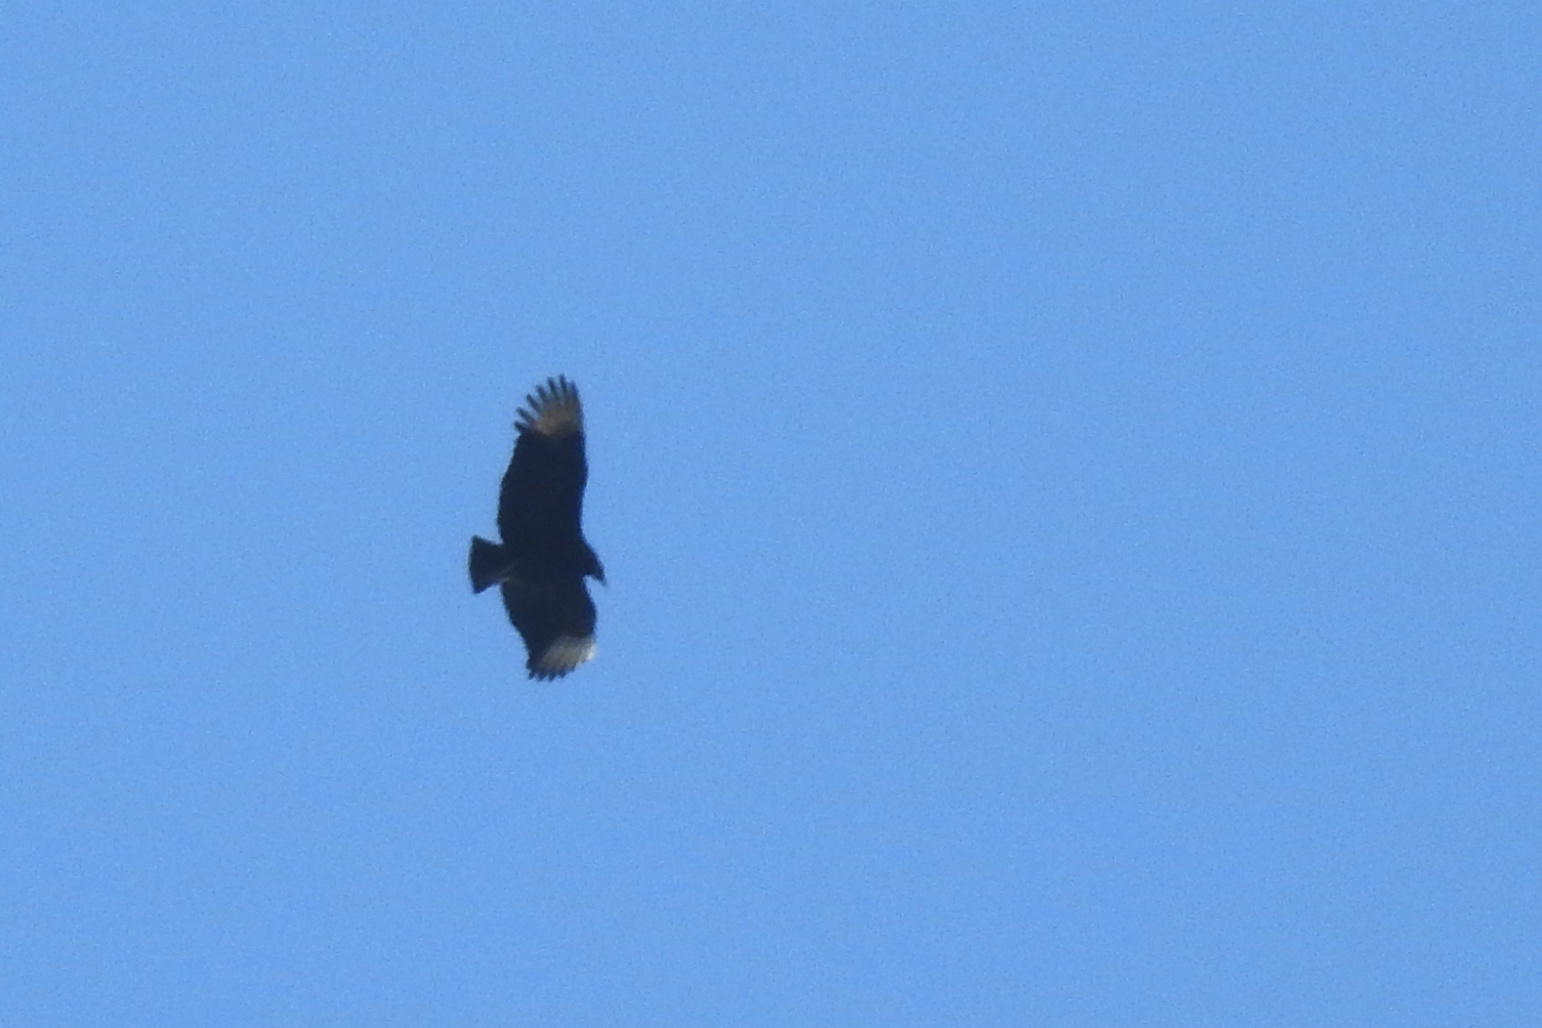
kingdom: Animalia
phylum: Chordata
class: Aves
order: Accipitriformes
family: Cathartidae
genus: Coragyps
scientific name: Coragyps atratus
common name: Black vulture
